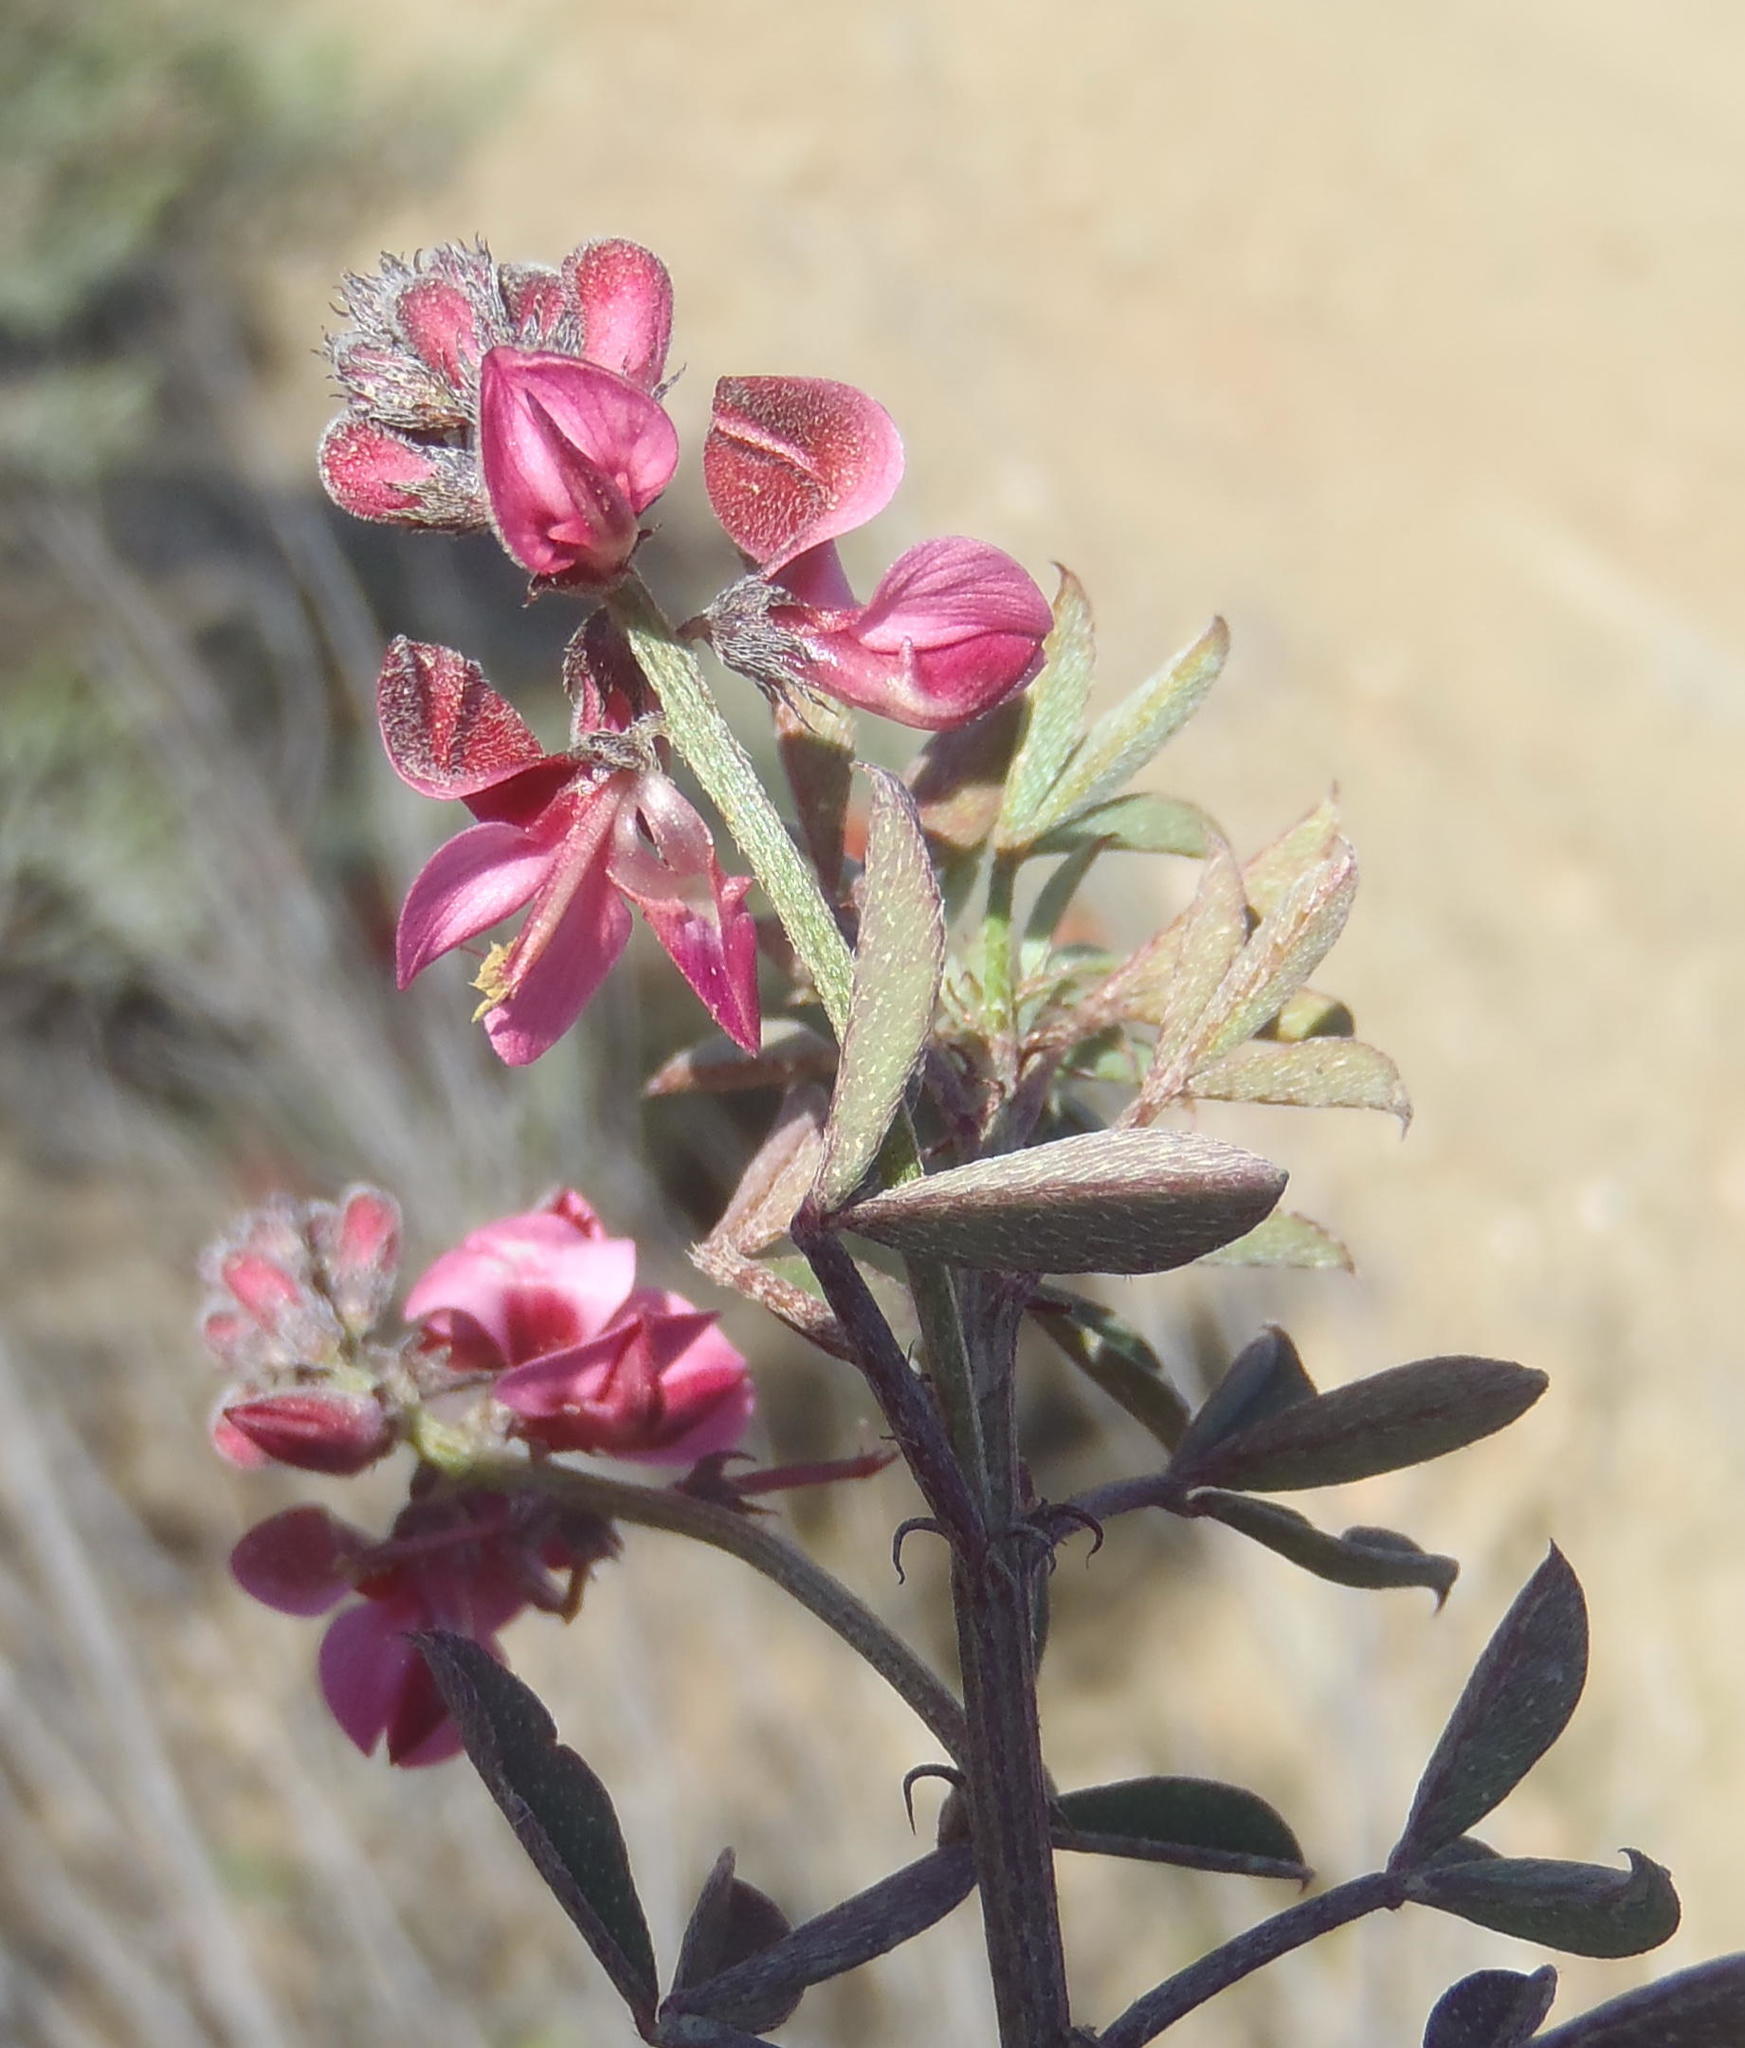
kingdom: Plantae
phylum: Tracheophyta
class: Magnoliopsida
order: Fabales
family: Fabaceae
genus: Indigofera
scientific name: Indigofera heterophylla
